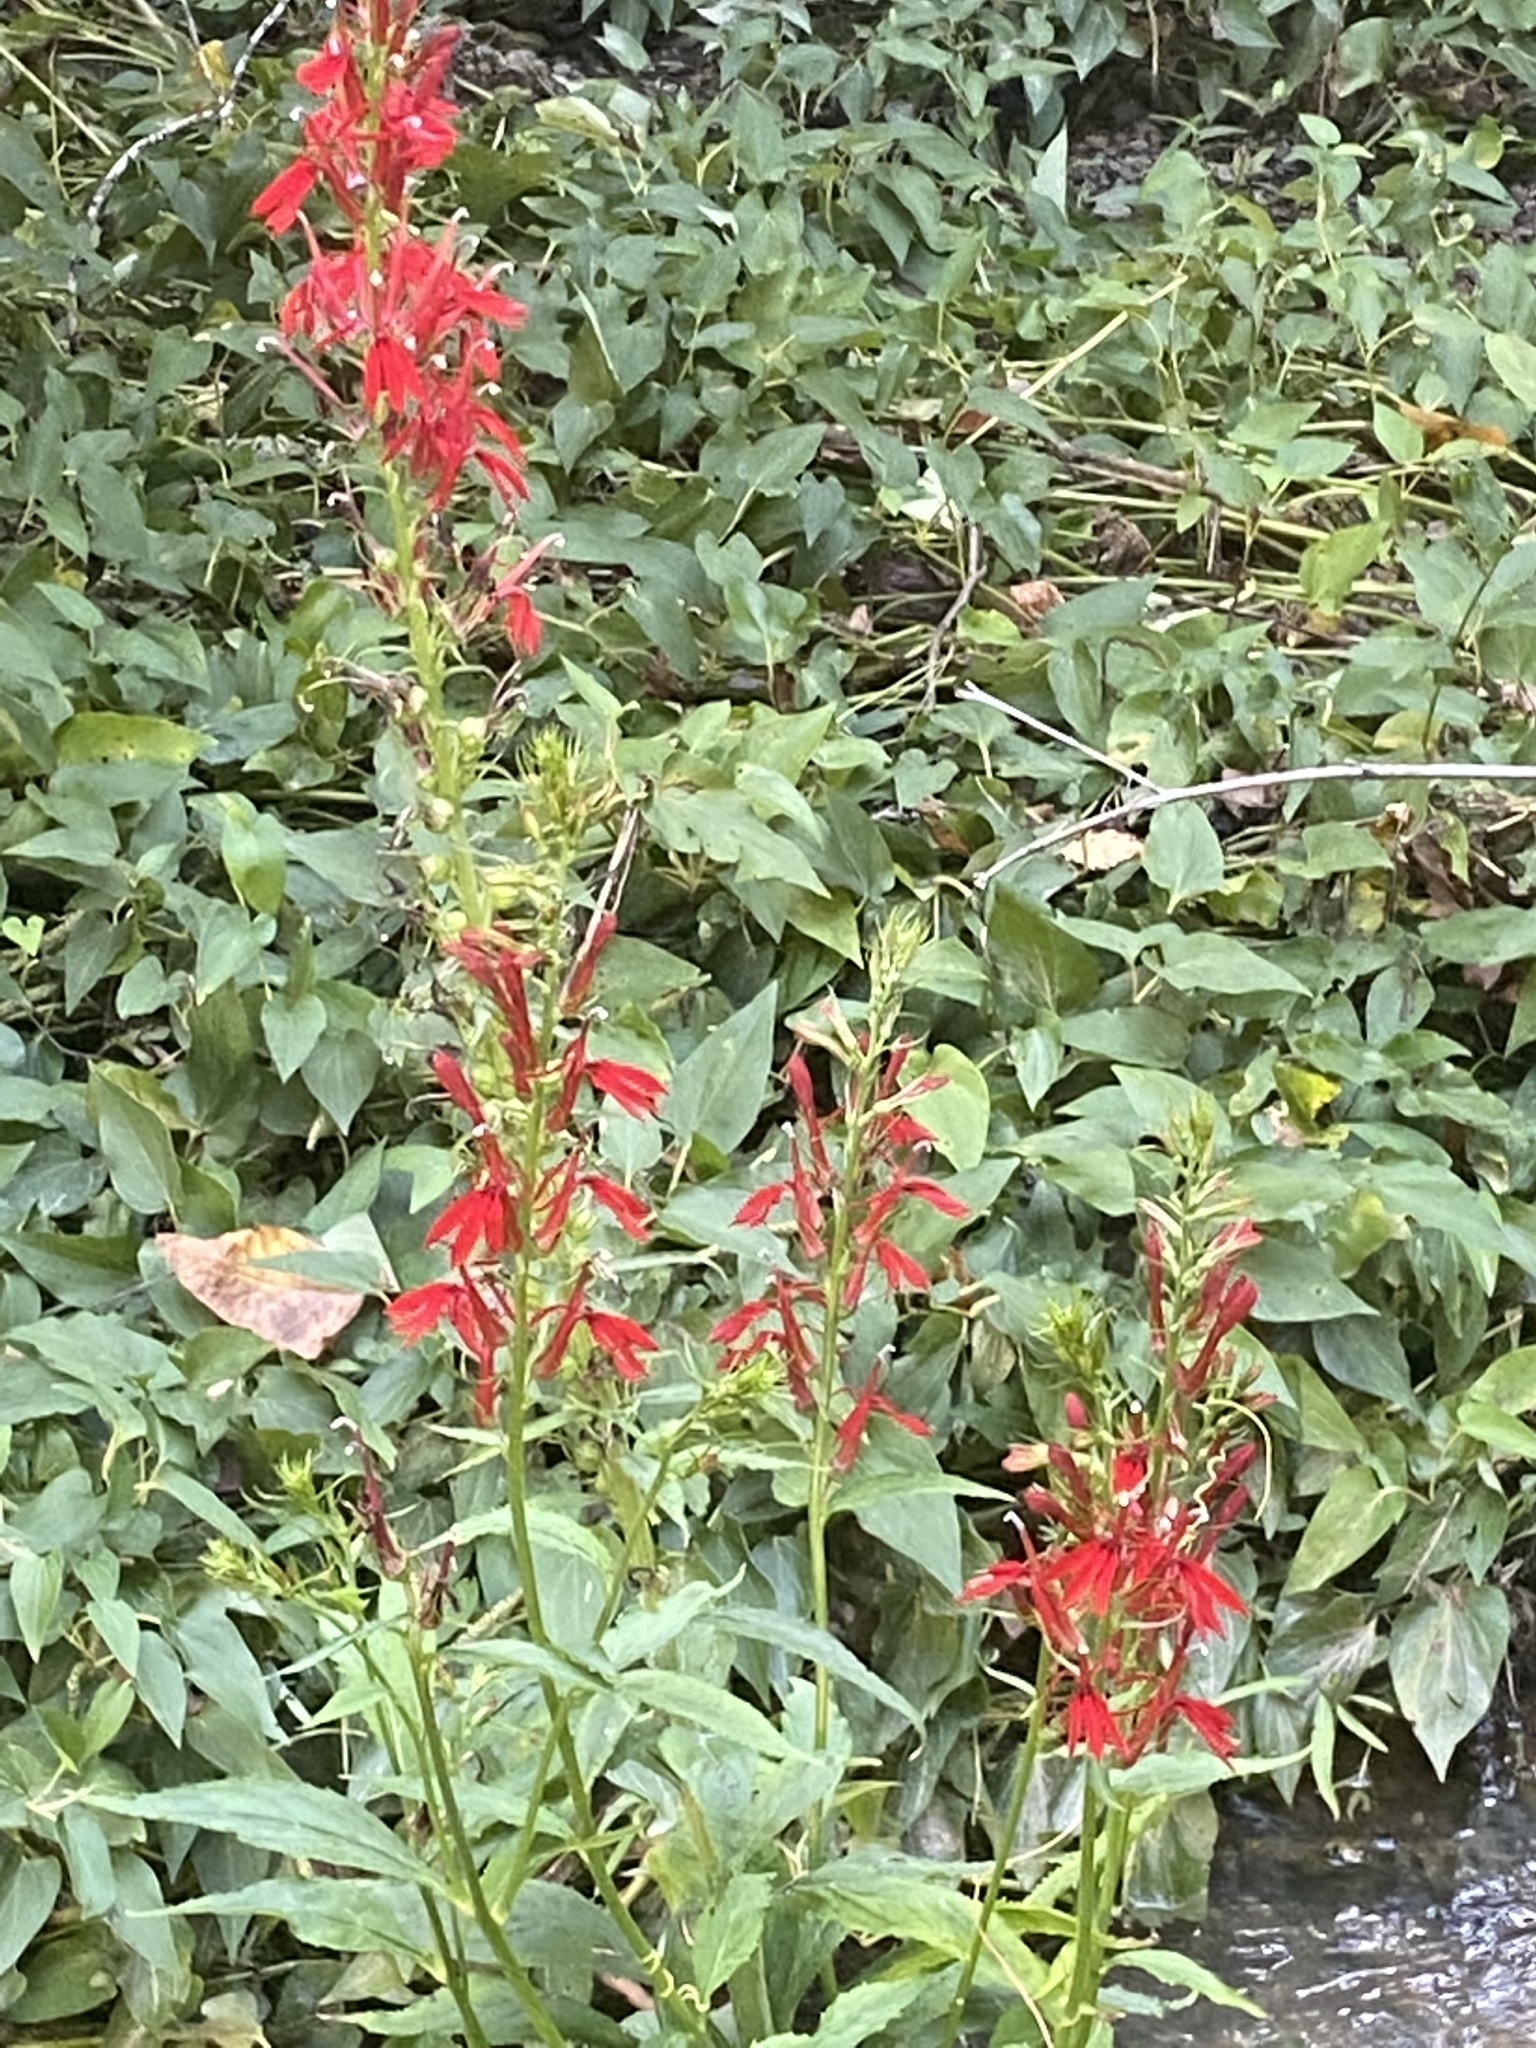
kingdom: Plantae
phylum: Tracheophyta
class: Magnoliopsida
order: Asterales
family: Campanulaceae
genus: Lobelia
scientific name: Lobelia cardinalis
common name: Cardinal flower
